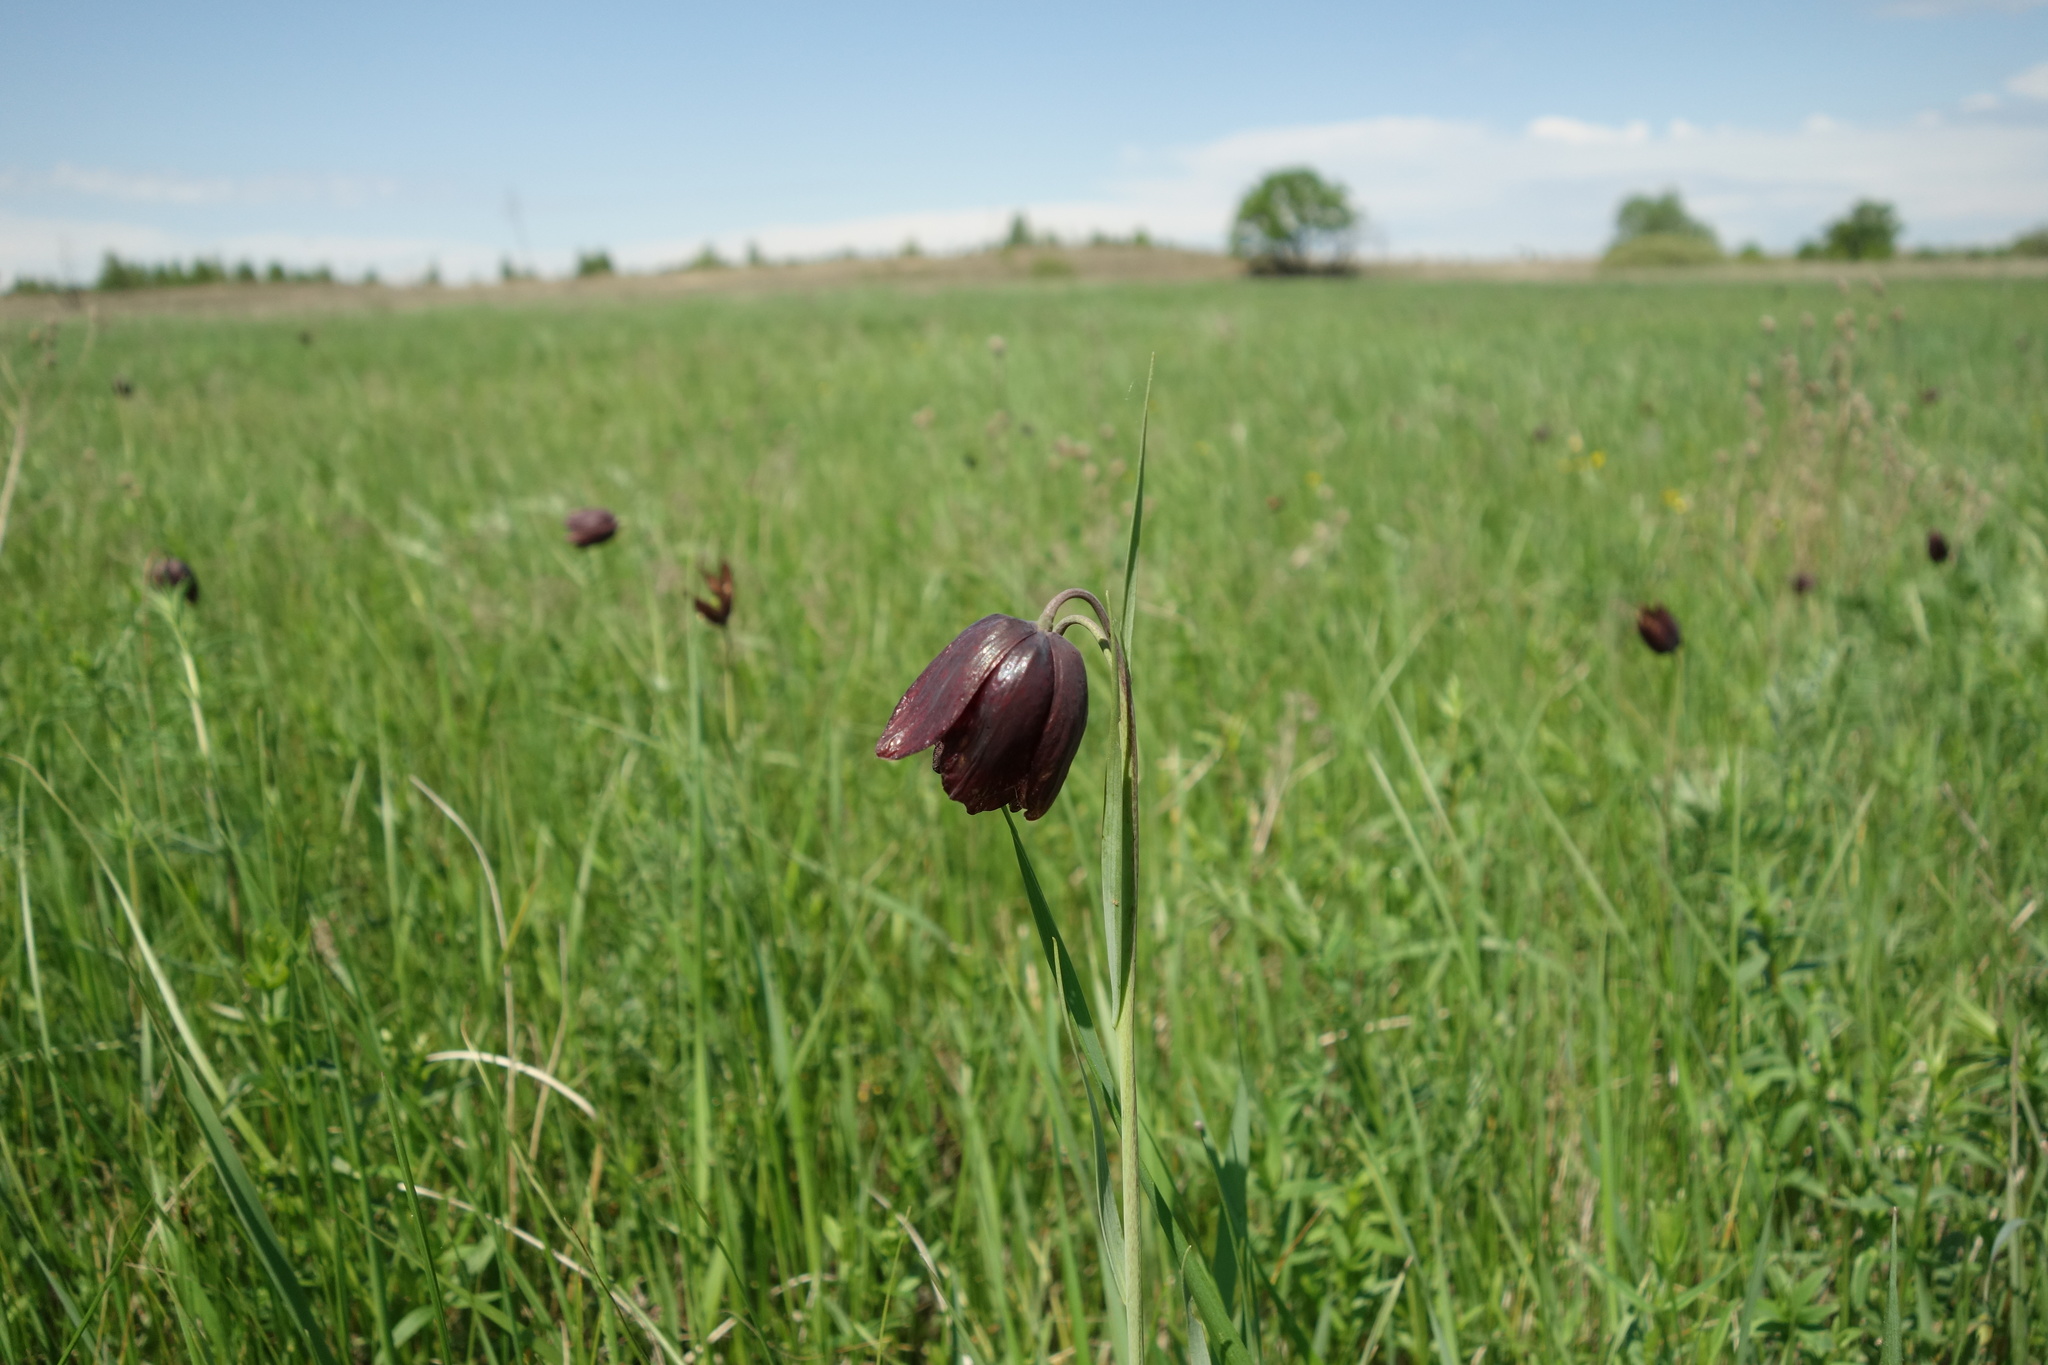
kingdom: Plantae
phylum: Tracheophyta
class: Liliopsida
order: Liliales
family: Liliaceae
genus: Fritillaria
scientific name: Fritillaria meleagroides
